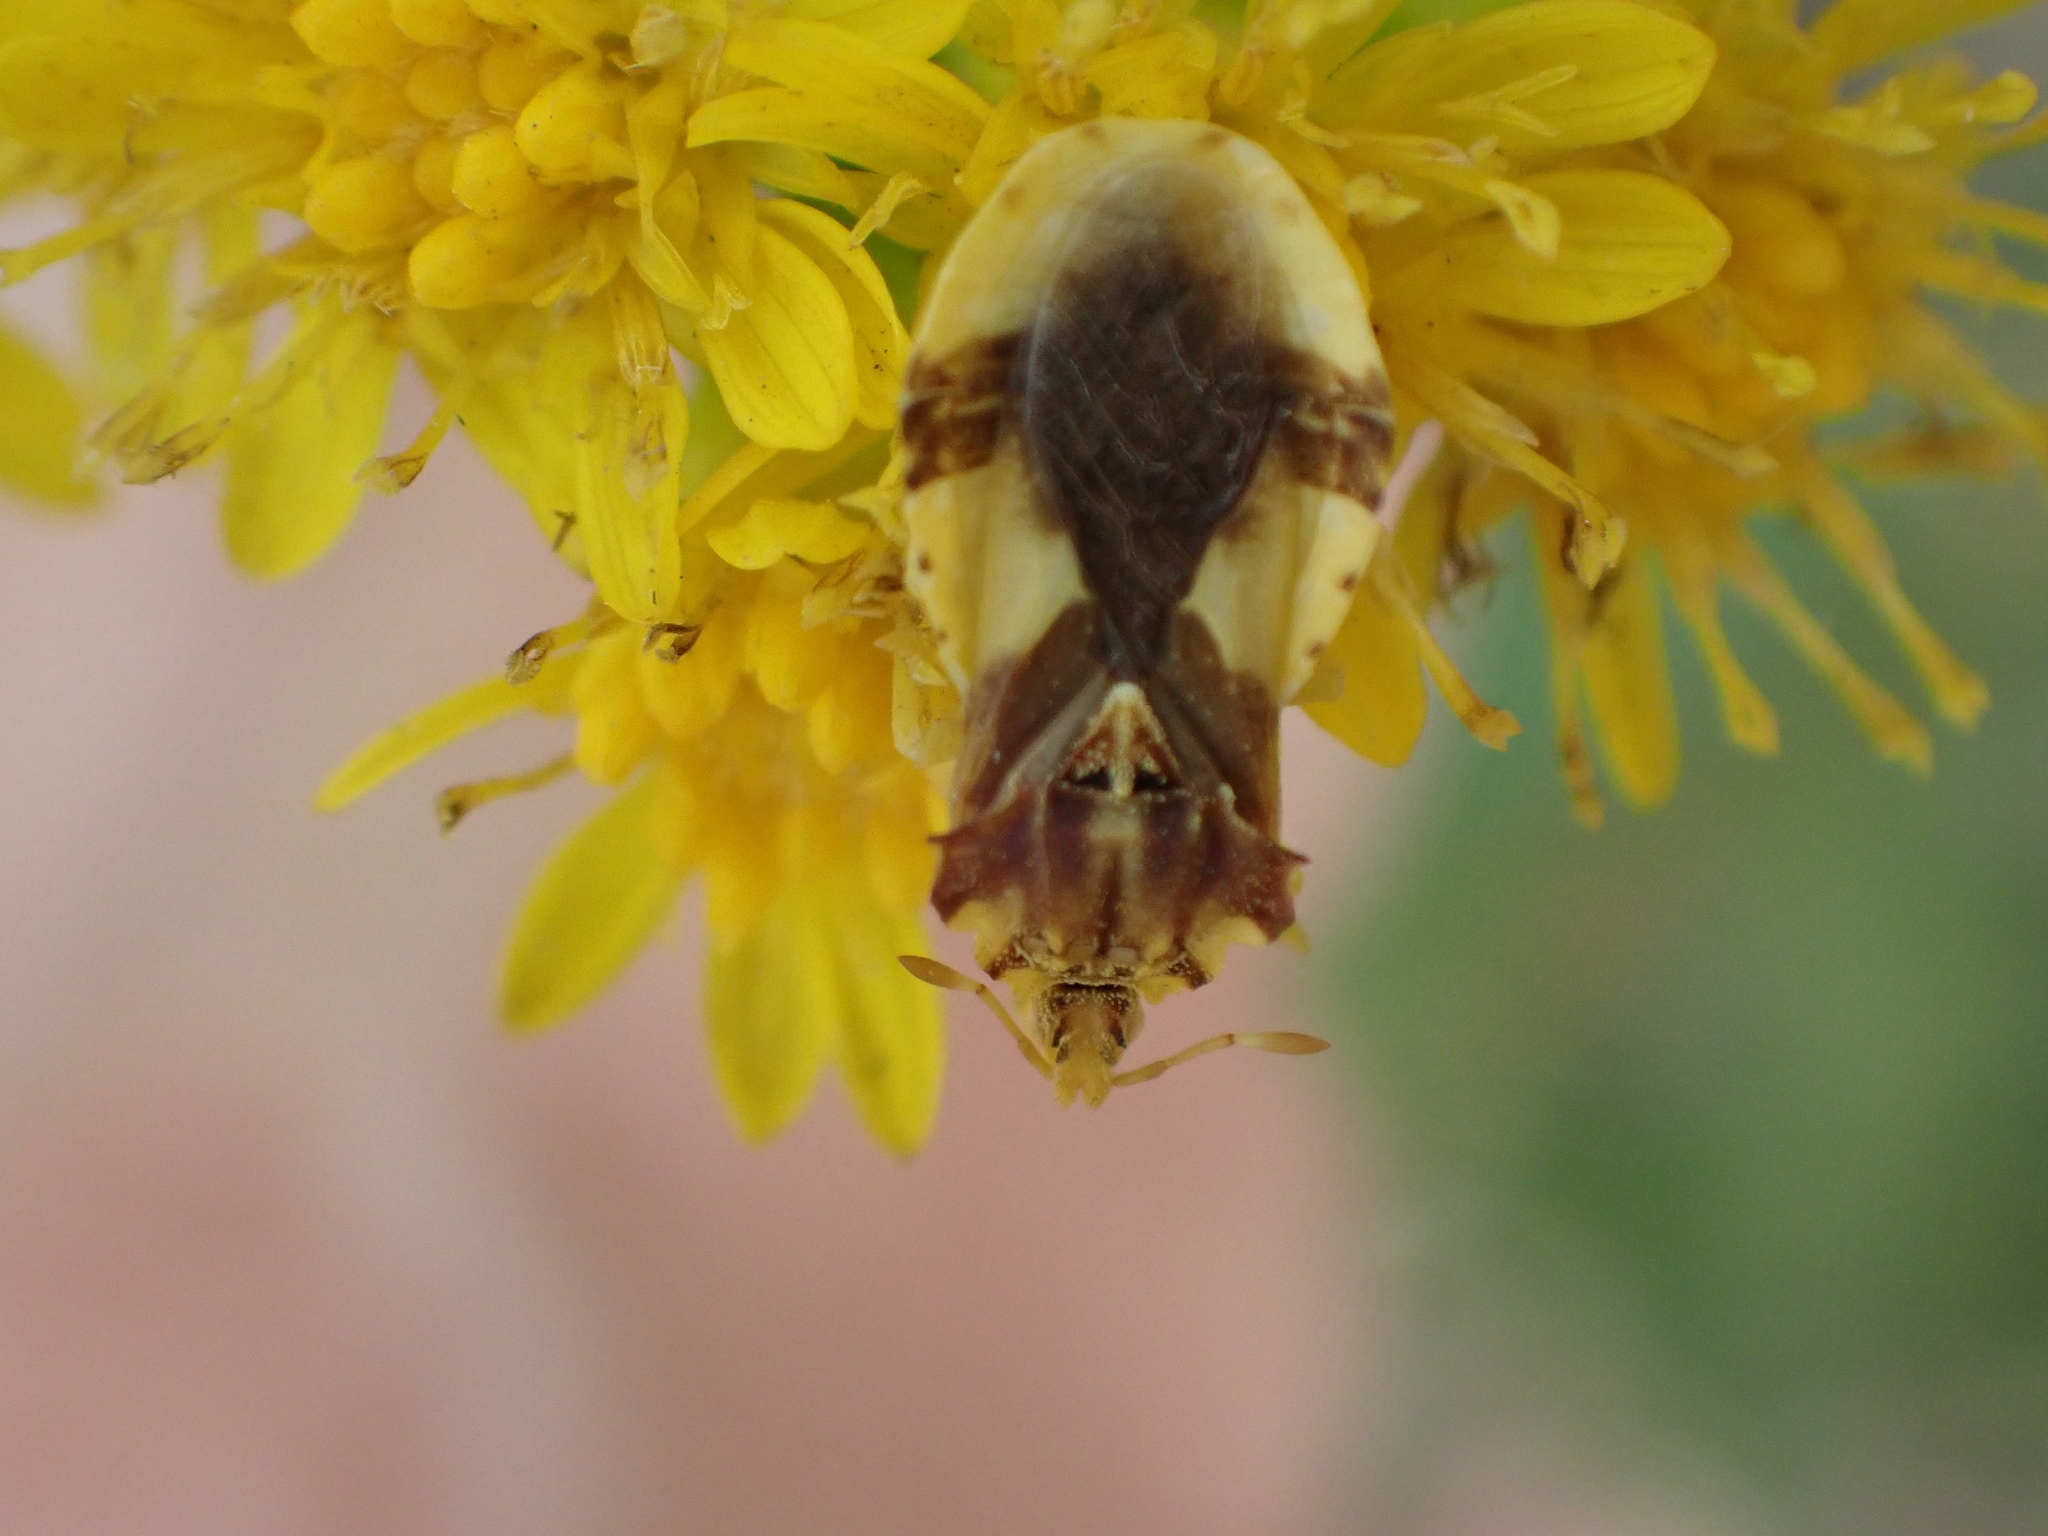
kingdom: Animalia
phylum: Arthropoda
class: Insecta
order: Hemiptera
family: Reduviidae
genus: Phymata
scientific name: Phymata americana
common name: Jagged ambush bug
